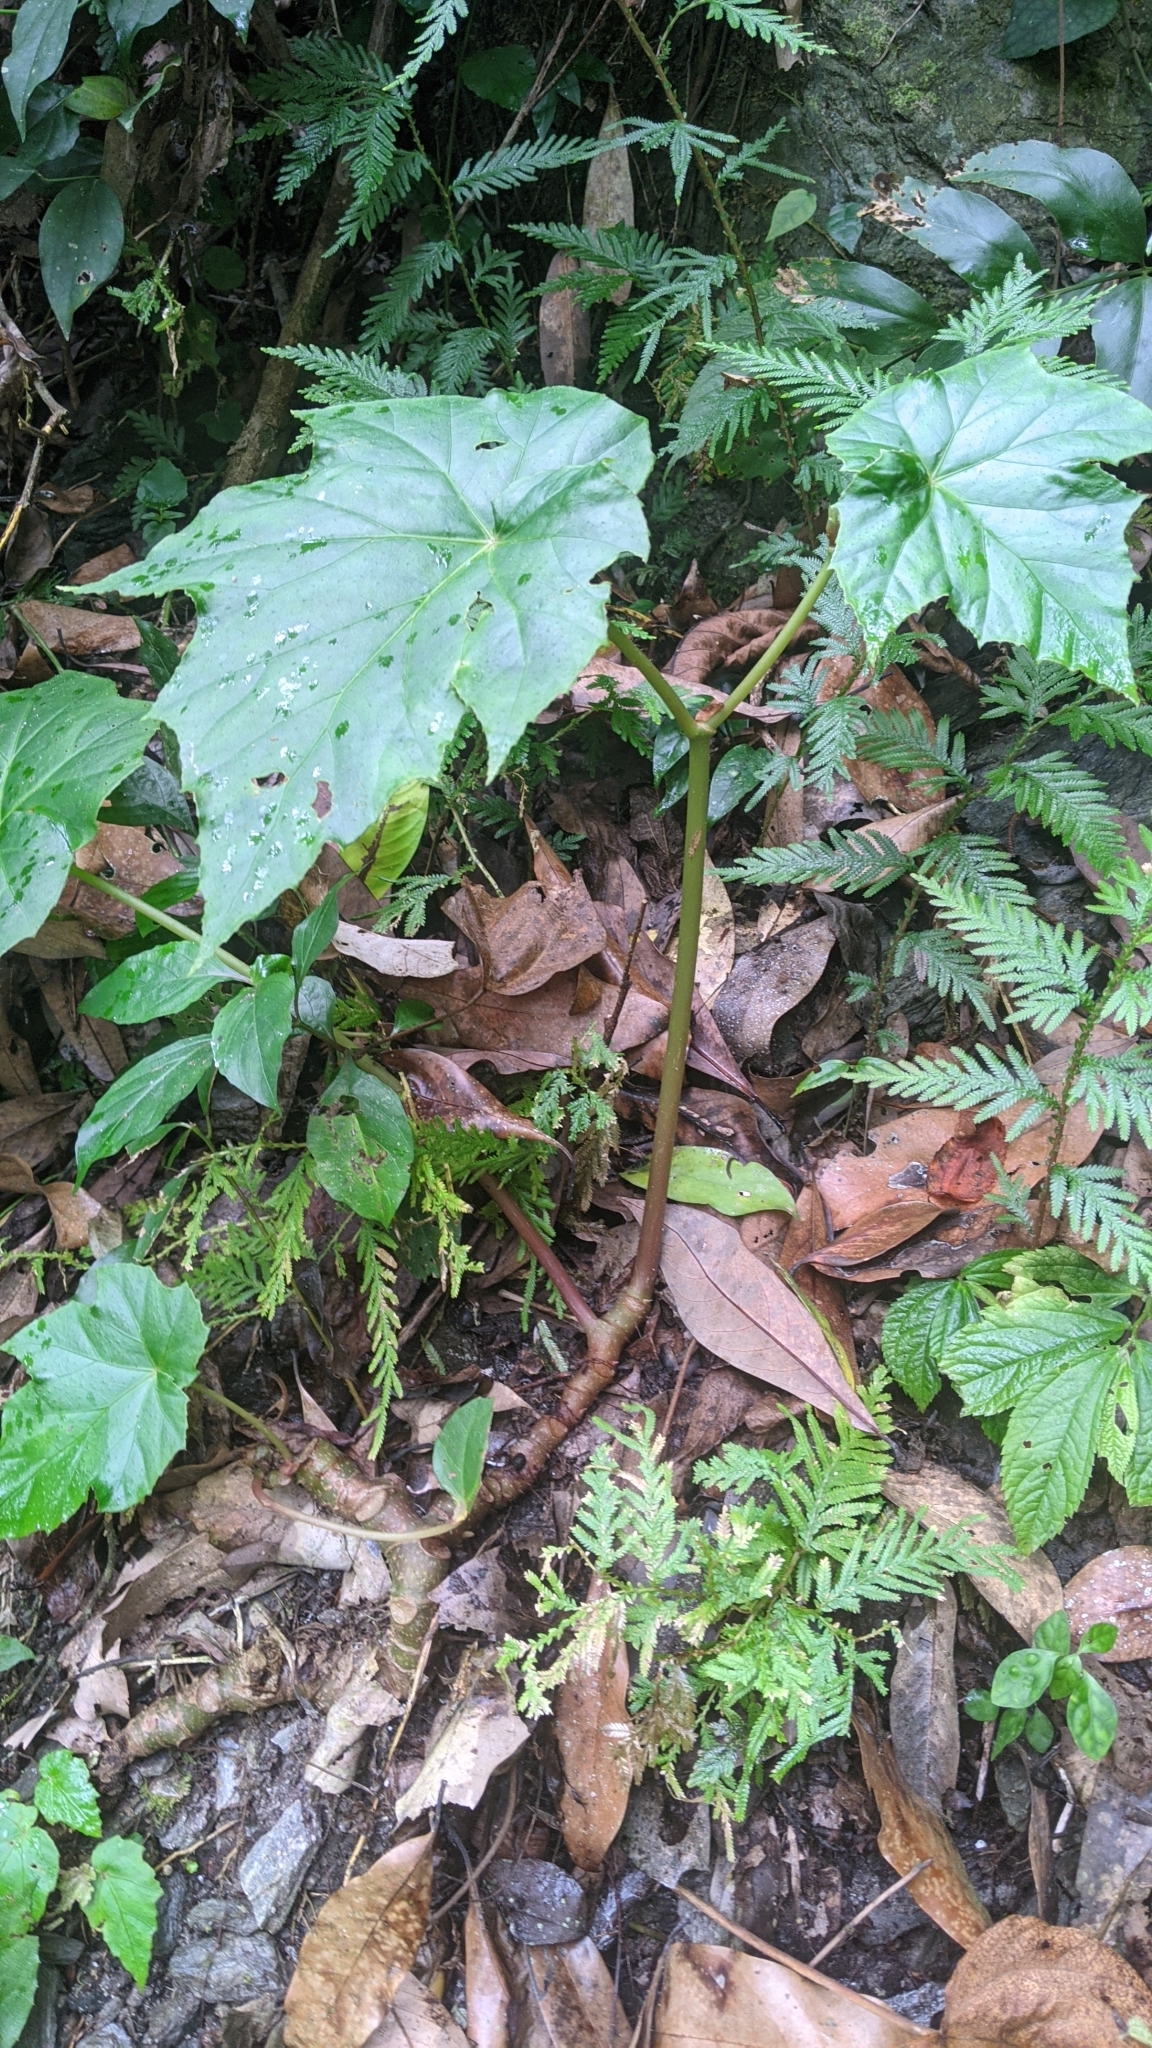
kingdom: Plantae
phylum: Tracheophyta
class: Magnoliopsida
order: Cucurbitales
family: Begoniaceae
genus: Begonia
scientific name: Begonia formosana
